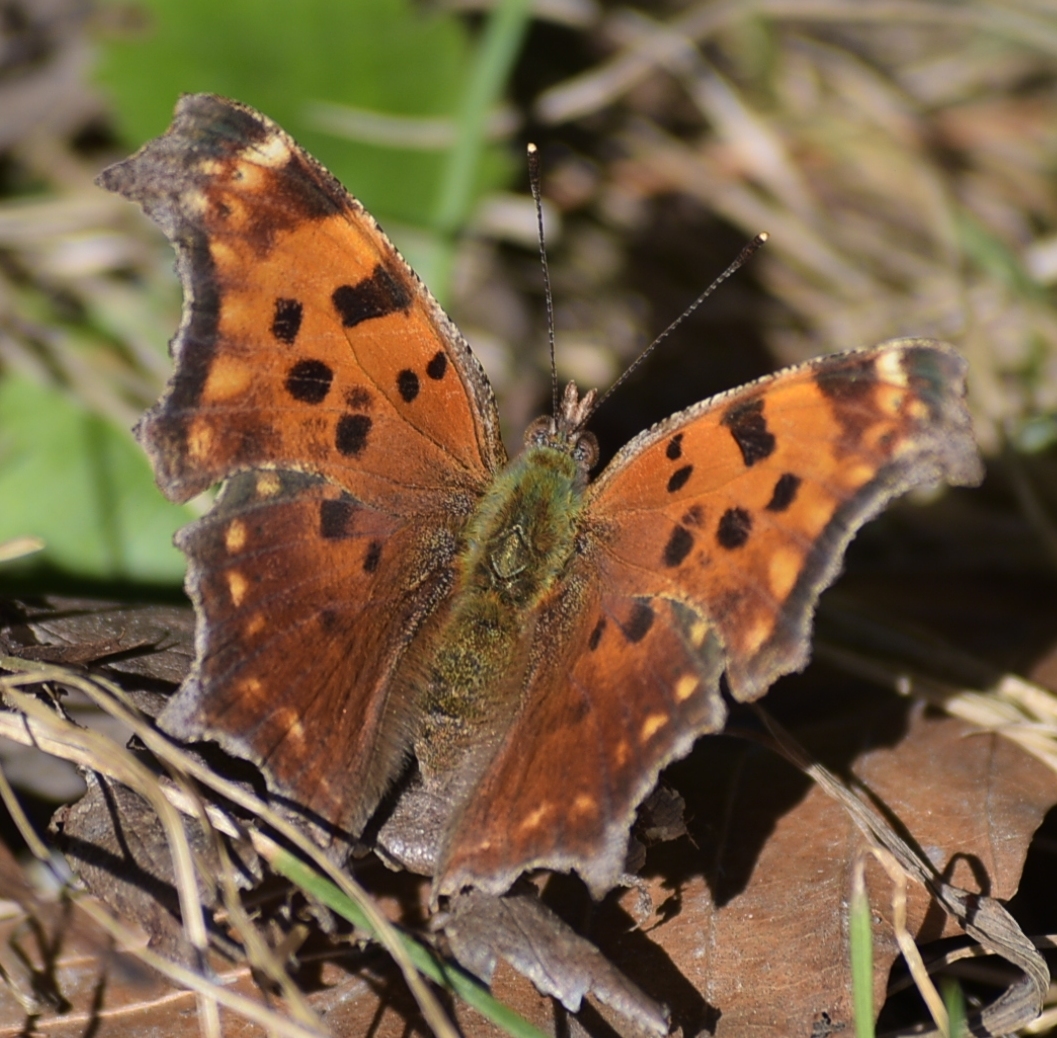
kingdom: Animalia
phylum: Arthropoda
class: Insecta
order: Lepidoptera
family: Nymphalidae
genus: Polygonia
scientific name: Polygonia comma
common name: Eastern comma
